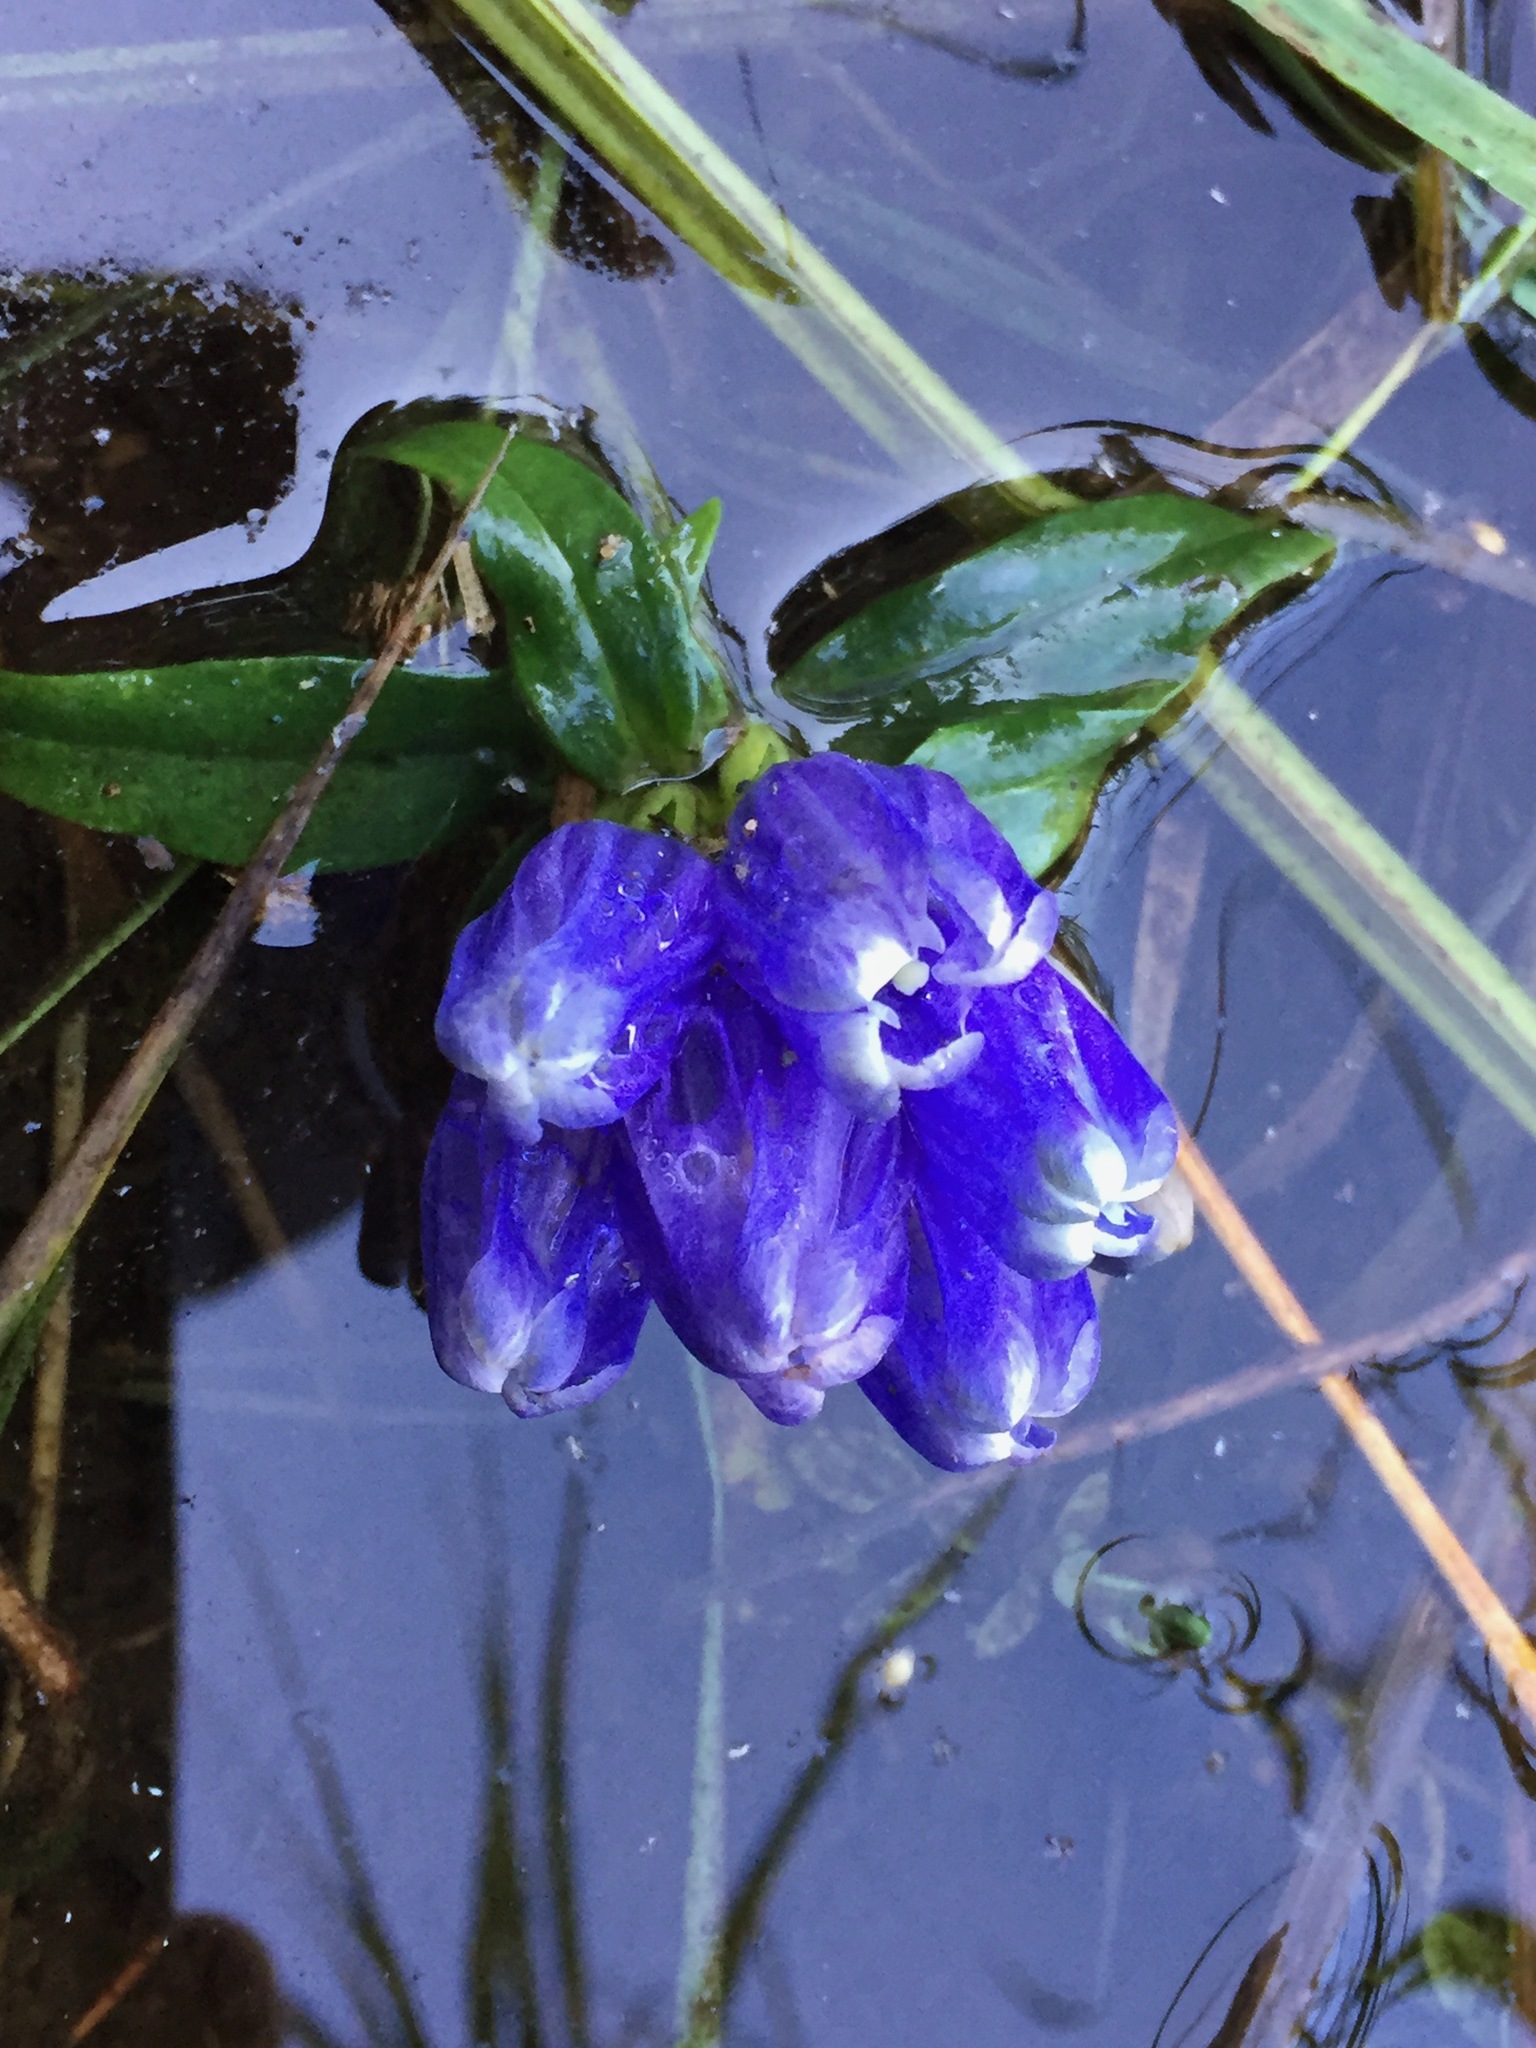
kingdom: Plantae
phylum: Tracheophyta
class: Magnoliopsida
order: Gentianales
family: Gentianaceae
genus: Gentiana
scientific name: Gentiana linearis
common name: Bastard gentian
